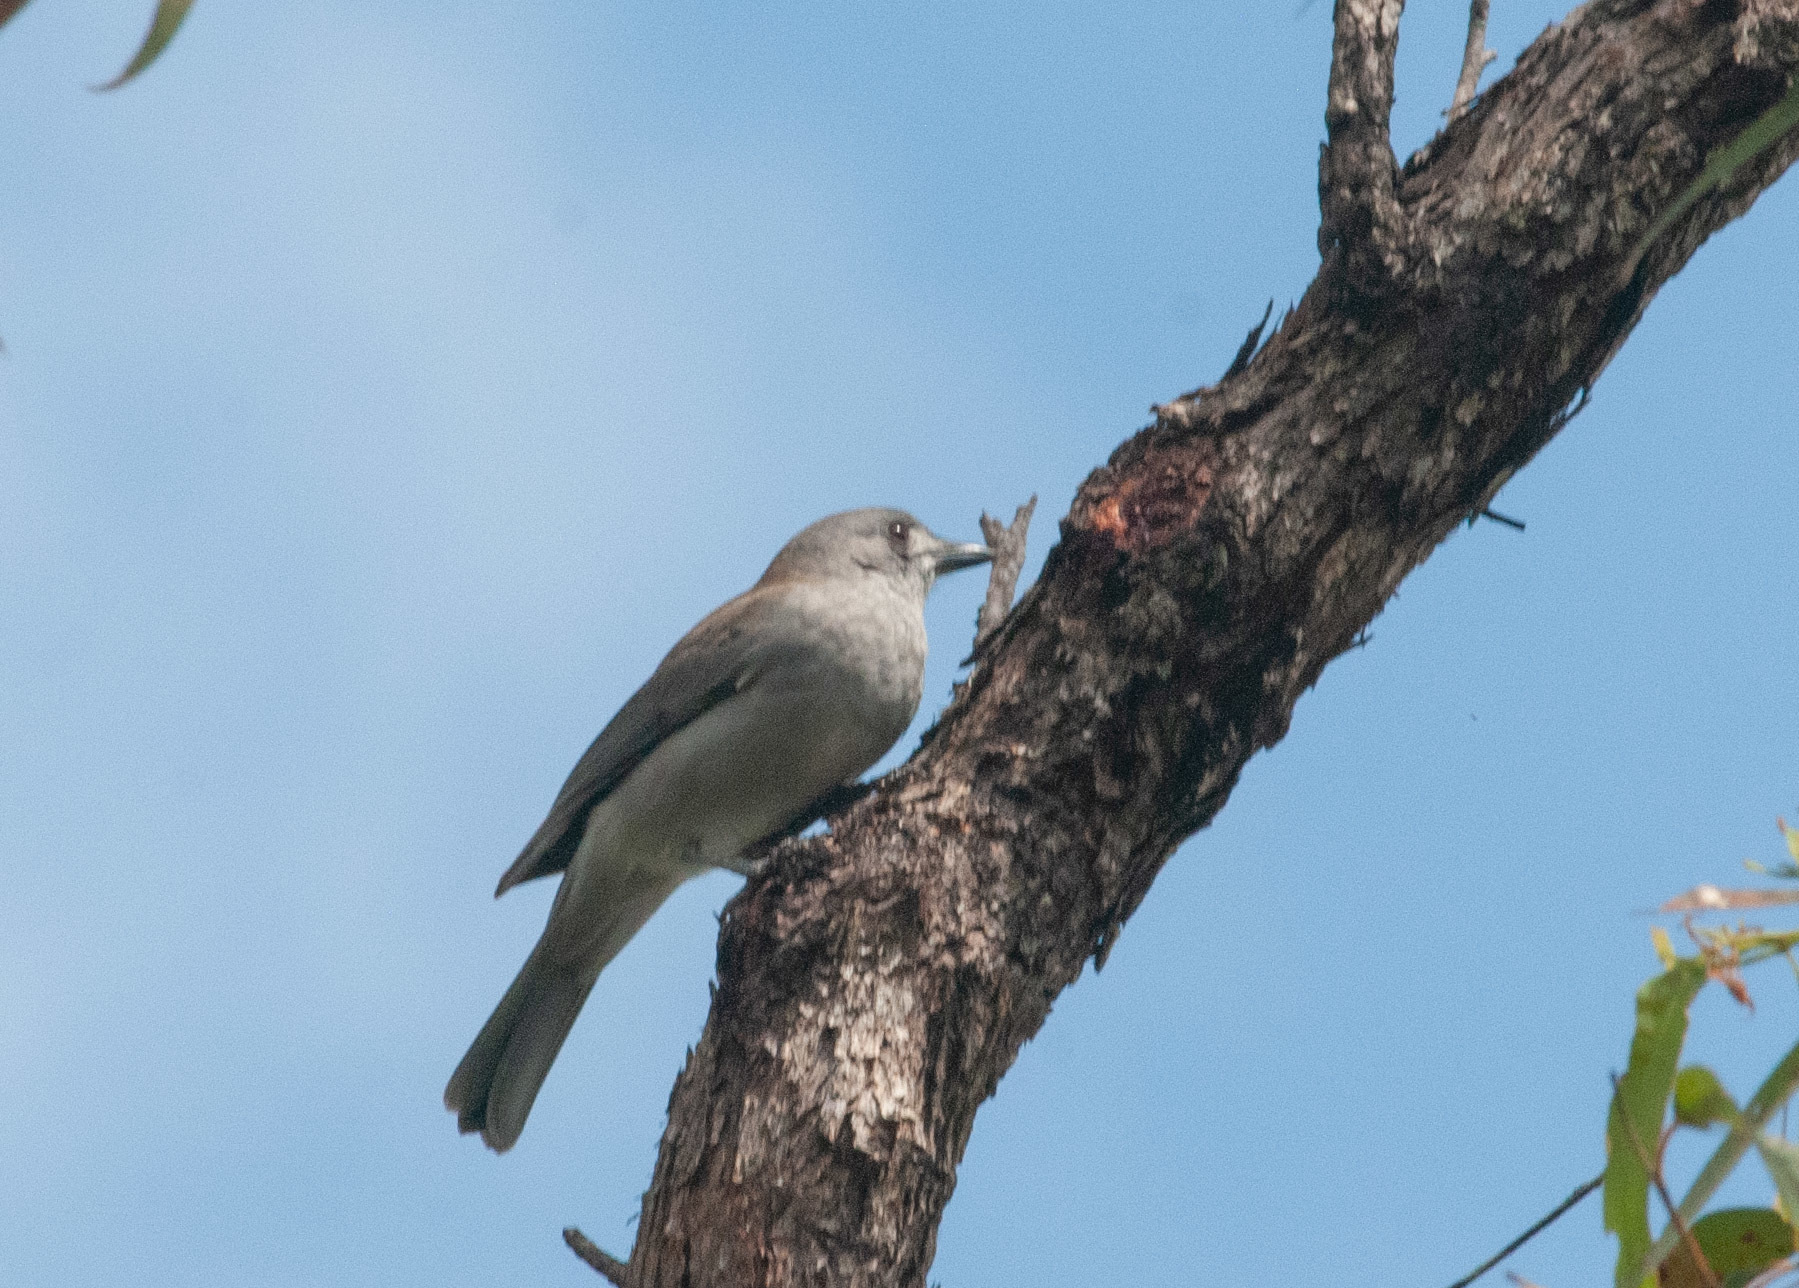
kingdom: Animalia
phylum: Chordata
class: Aves
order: Passeriformes
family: Pachycephalidae
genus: Colluricincla
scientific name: Colluricincla harmonica
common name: Grey shrikethrush
